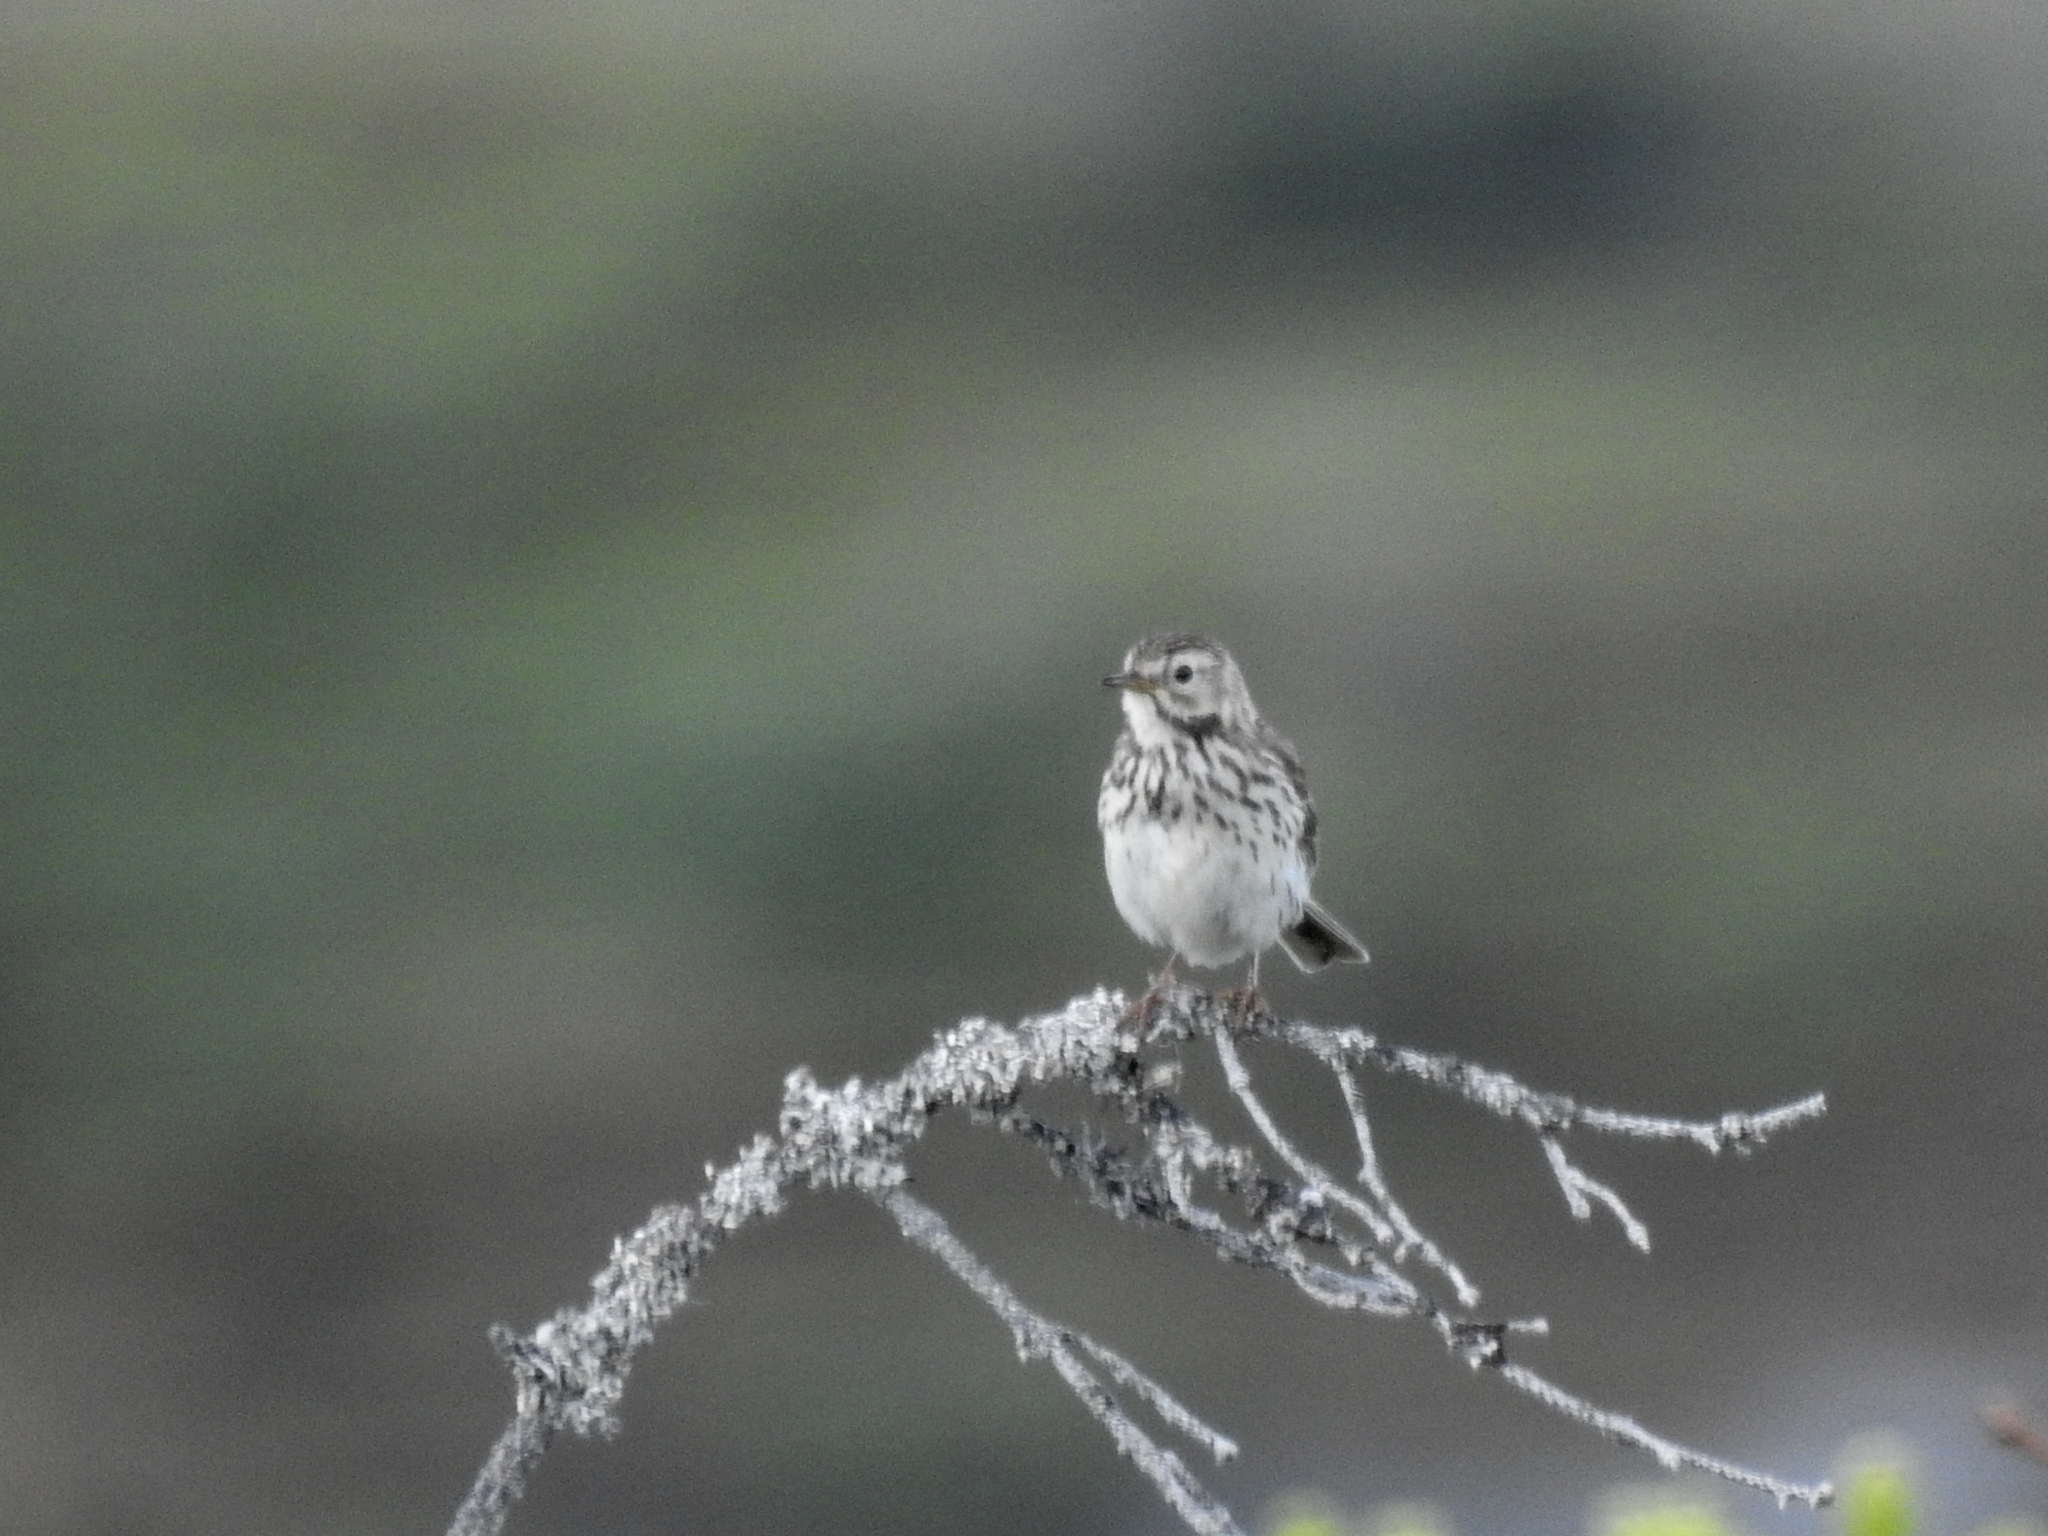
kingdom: Animalia
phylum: Chordata
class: Aves
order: Passeriformes
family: Motacillidae
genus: Anthus
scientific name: Anthus pratensis
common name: Meadow pipit
